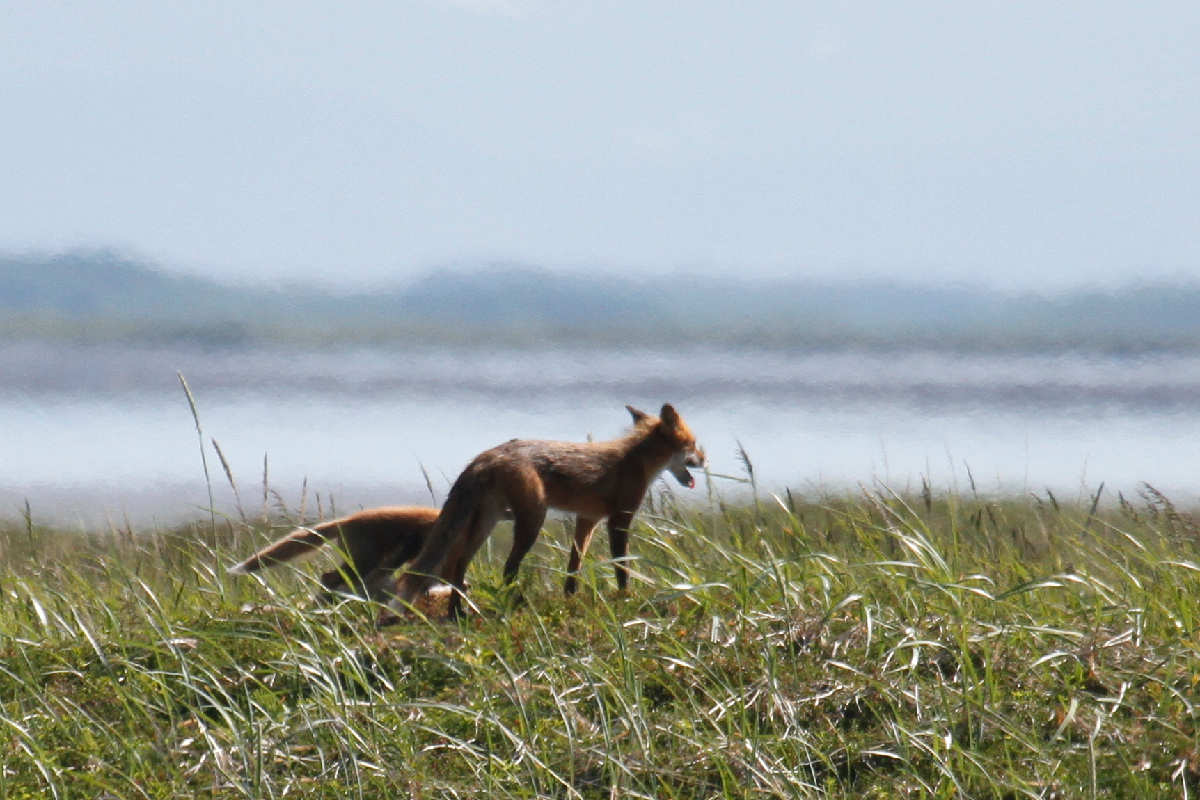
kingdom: Animalia
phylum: Chordata
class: Mammalia
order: Carnivora
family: Canidae
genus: Vulpes
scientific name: Vulpes vulpes
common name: Red fox
